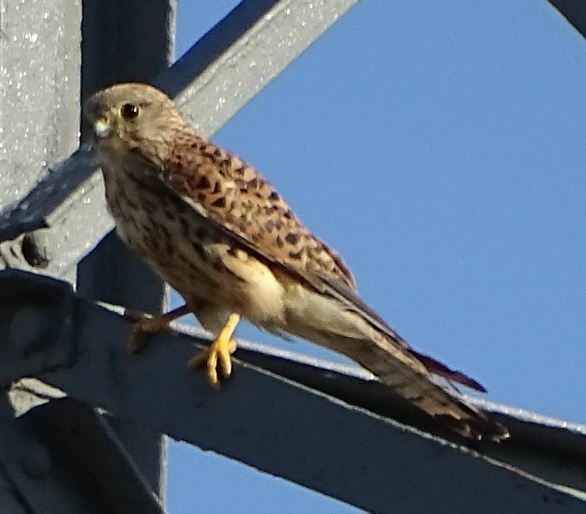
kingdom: Animalia
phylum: Chordata
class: Aves
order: Falconiformes
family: Falconidae
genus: Falco
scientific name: Falco tinnunculus
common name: Common kestrel
